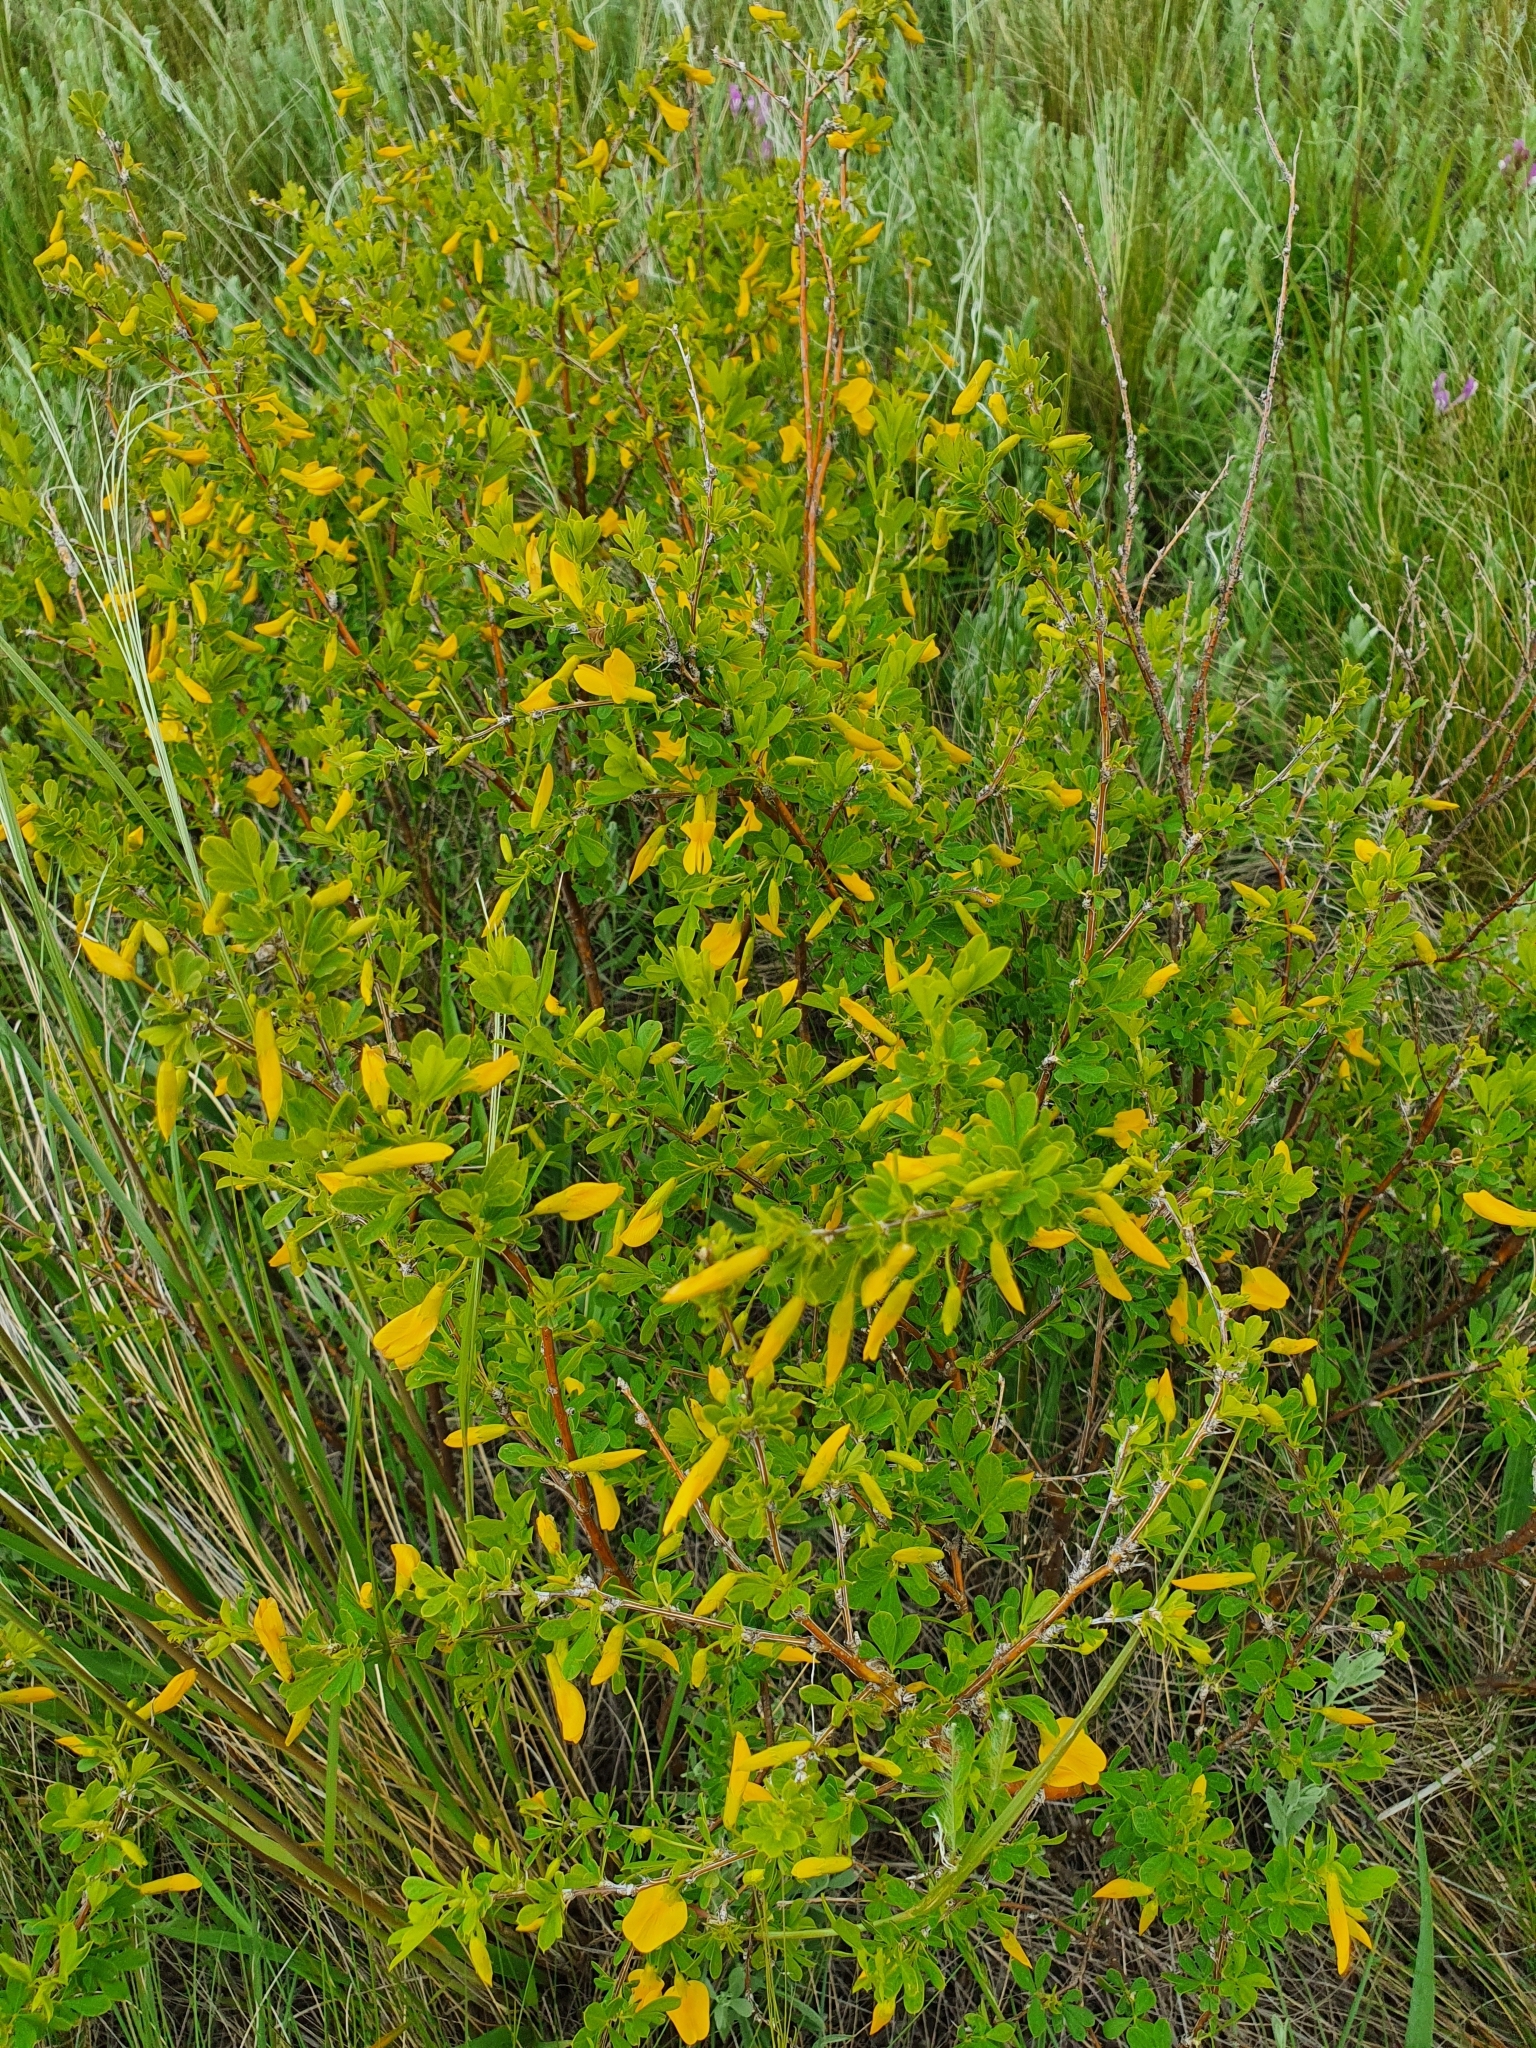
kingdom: Plantae
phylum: Tracheophyta
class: Magnoliopsida
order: Fabales
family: Fabaceae
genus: Caragana
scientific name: Caragana frutex
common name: Russian peashrub
